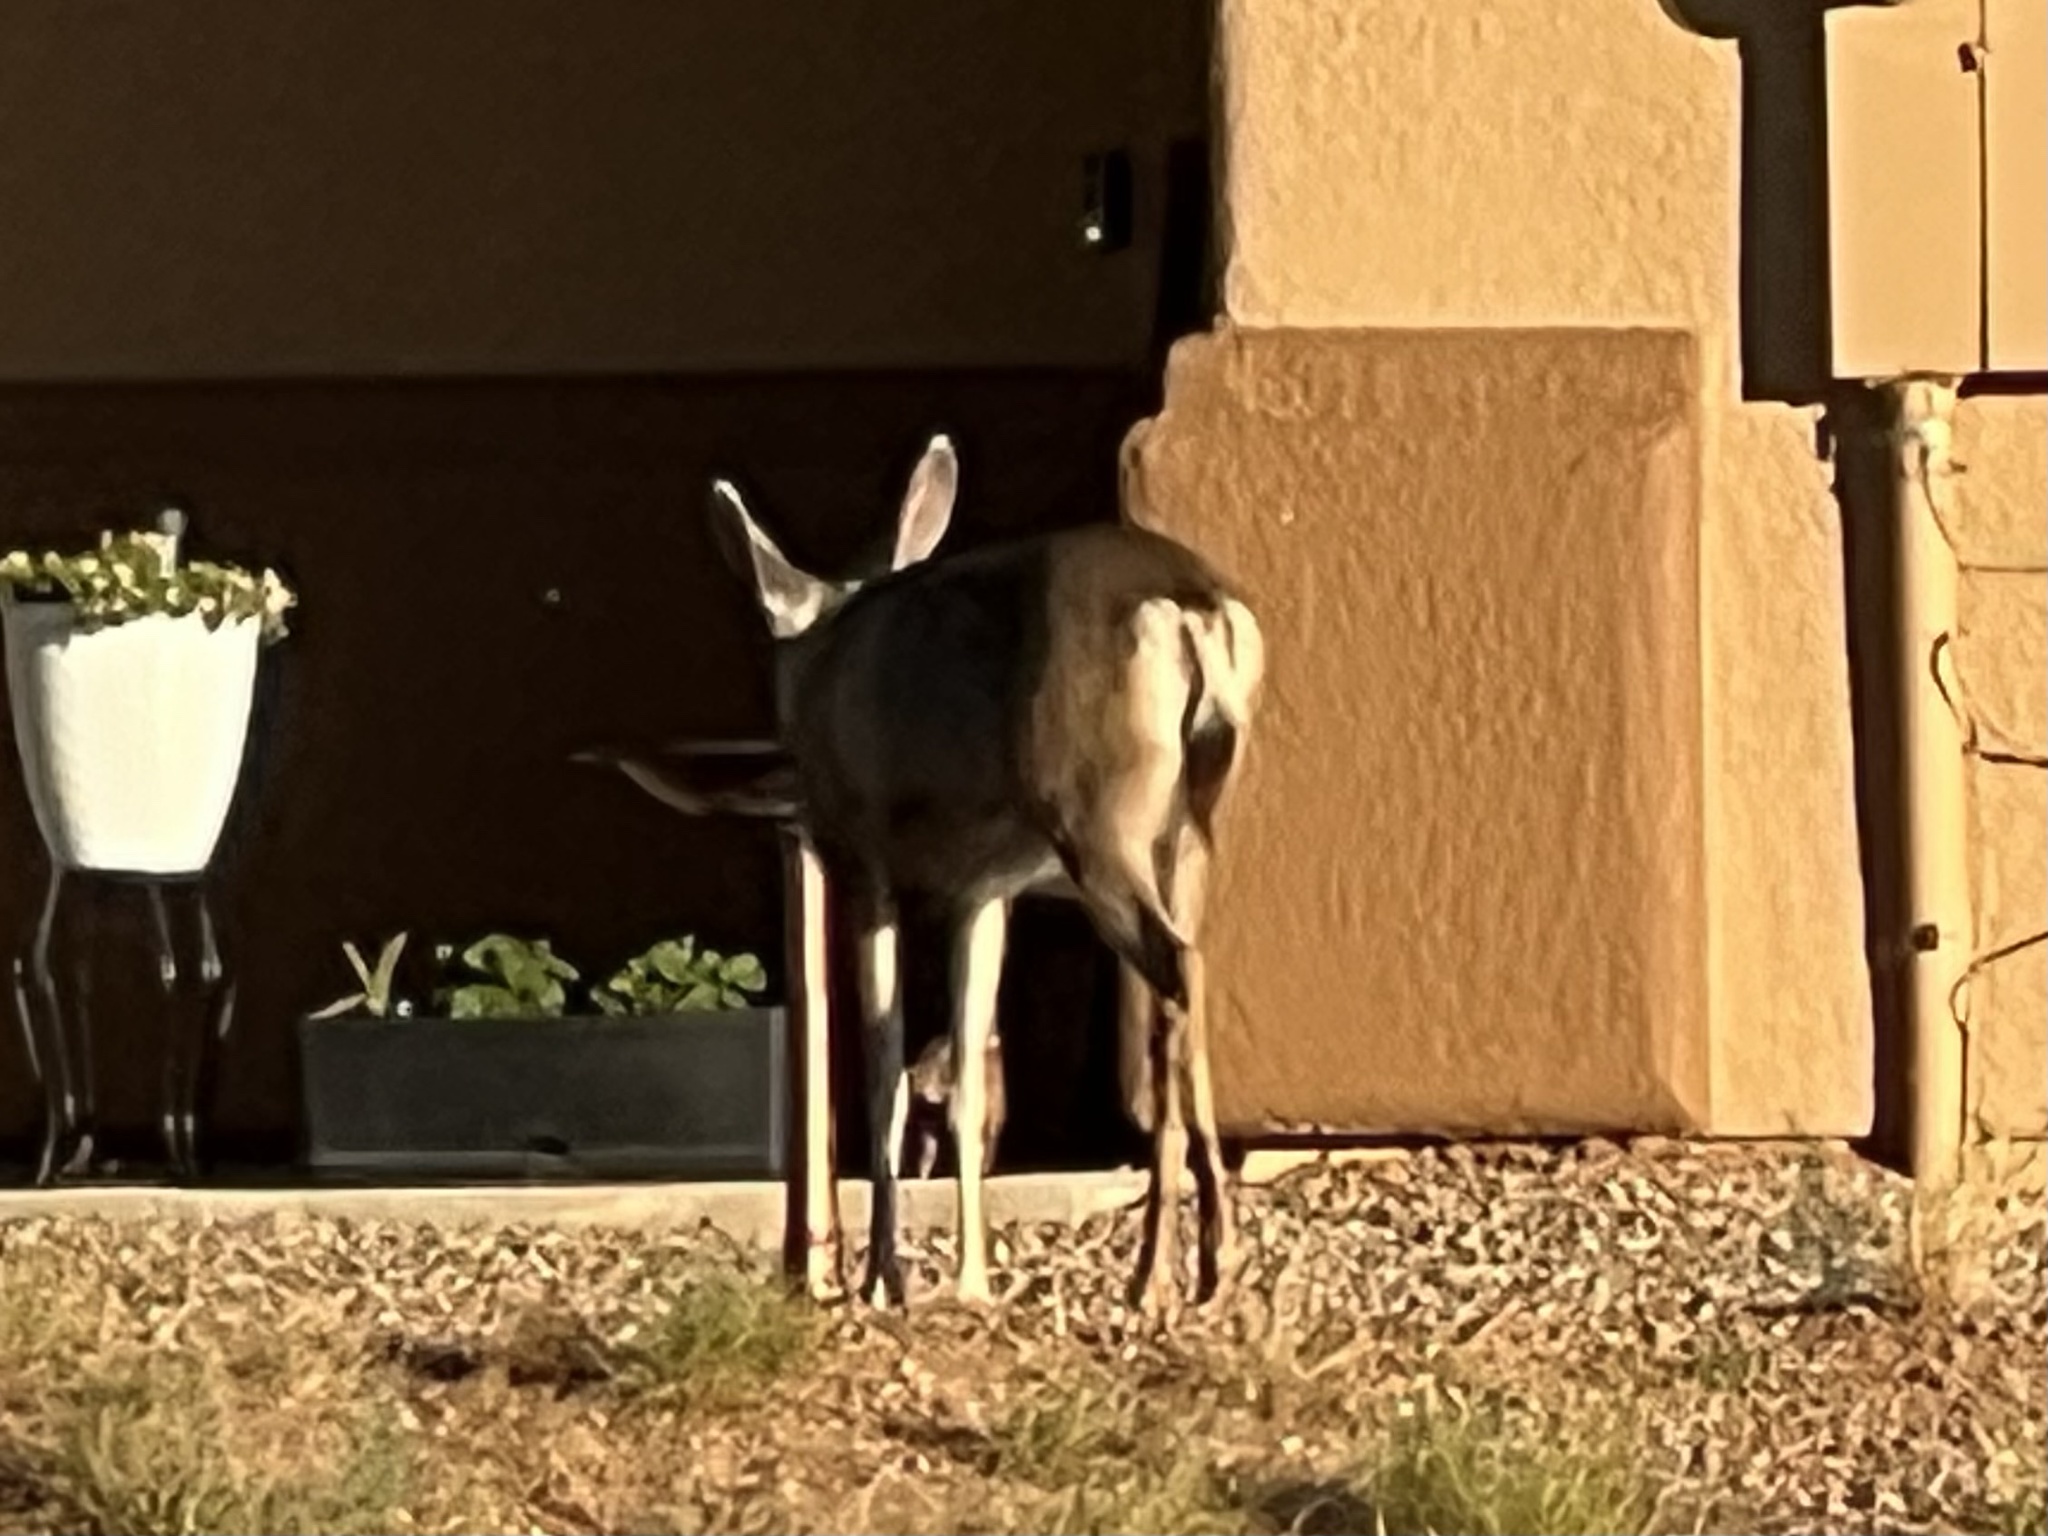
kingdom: Animalia
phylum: Chordata
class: Mammalia
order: Artiodactyla
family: Cervidae
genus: Odocoileus
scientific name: Odocoileus hemionus
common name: Mule deer
